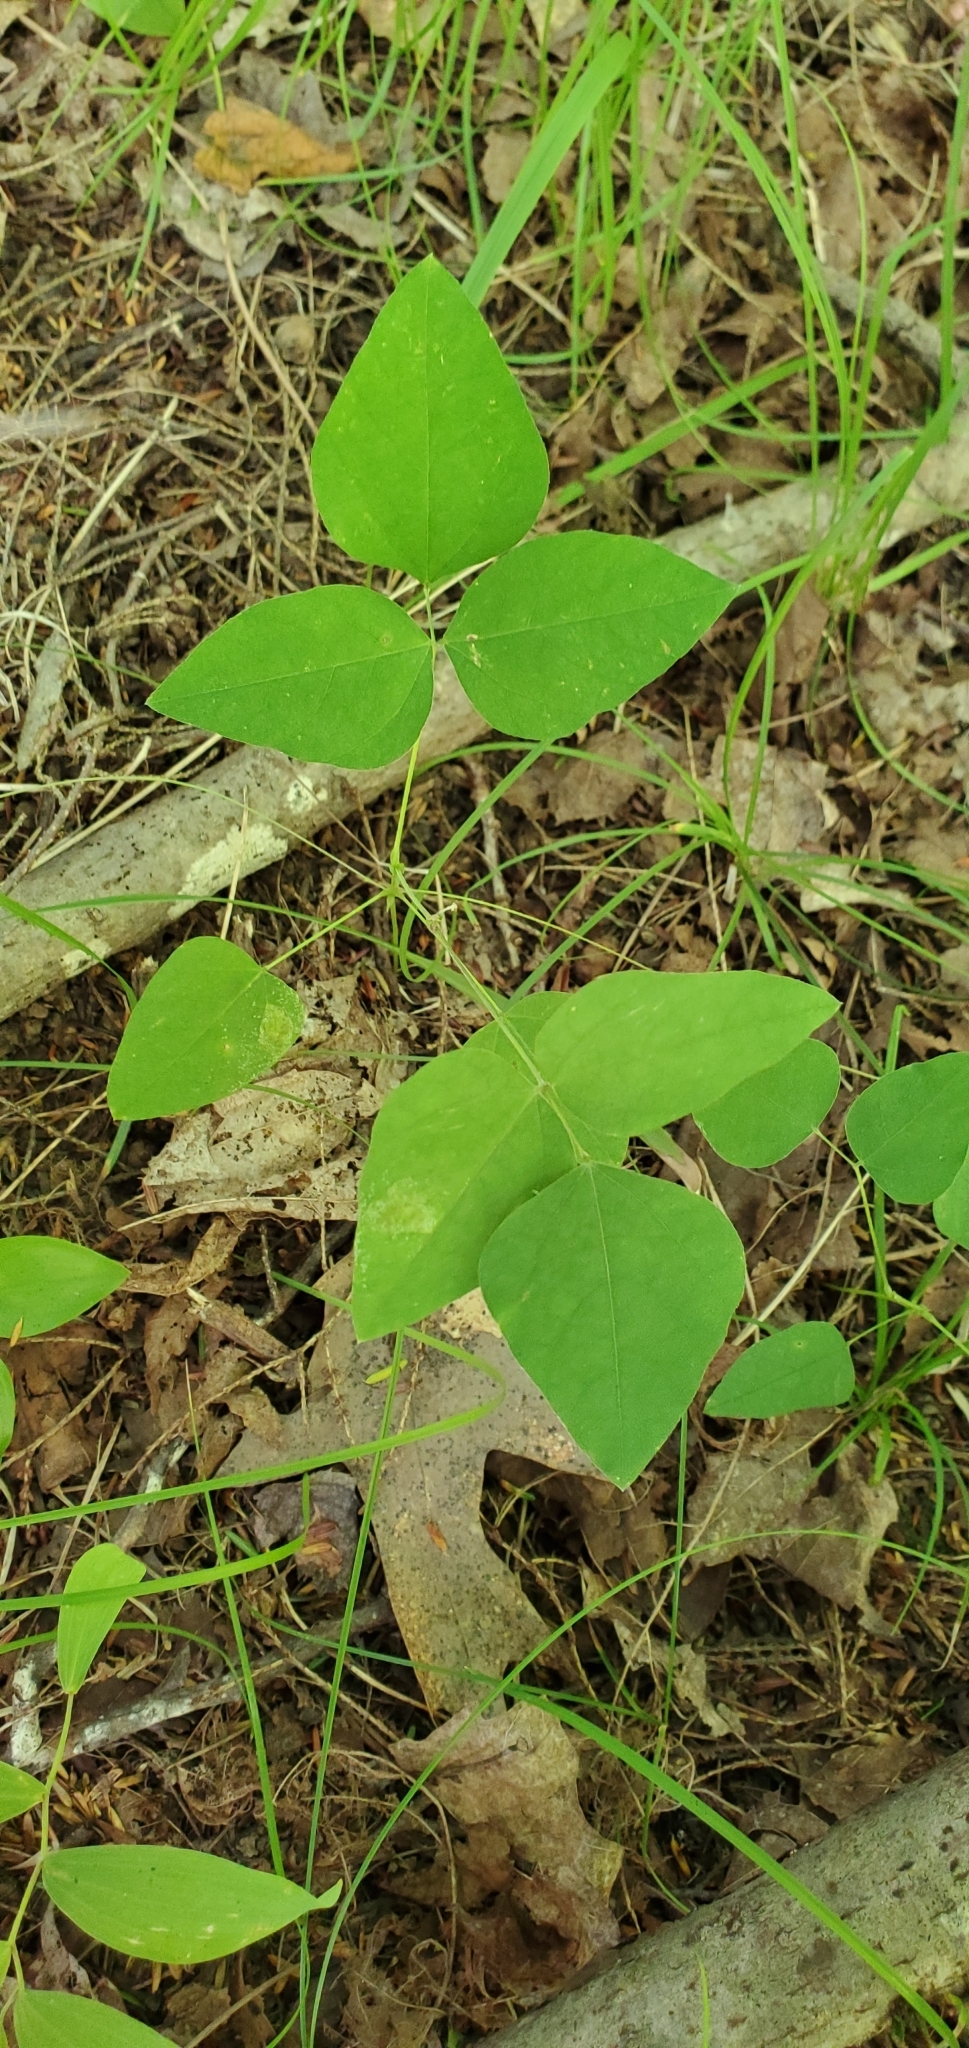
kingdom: Plantae
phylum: Tracheophyta
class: Magnoliopsida
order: Fabales
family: Fabaceae
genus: Amphicarpaea
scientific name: Amphicarpaea bracteata
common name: American hog peanut
